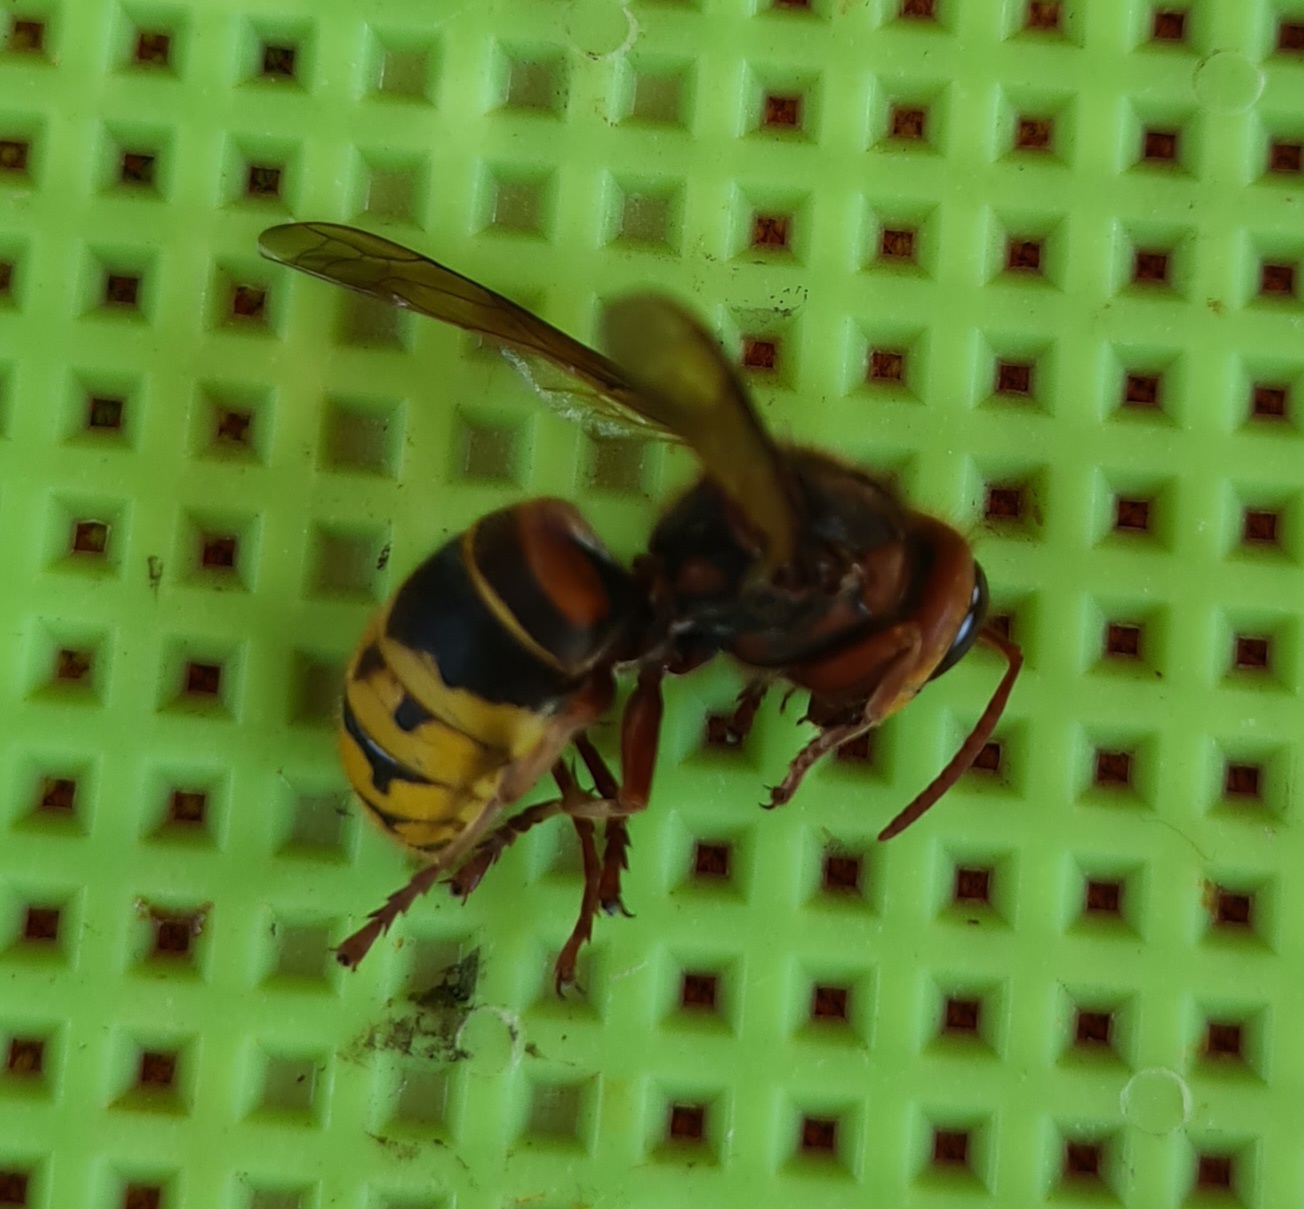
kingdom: Animalia
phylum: Arthropoda
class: Insecta
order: Hymenoptera
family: Vespidae
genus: Vespa
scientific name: Vespa crabro
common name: Hornet
